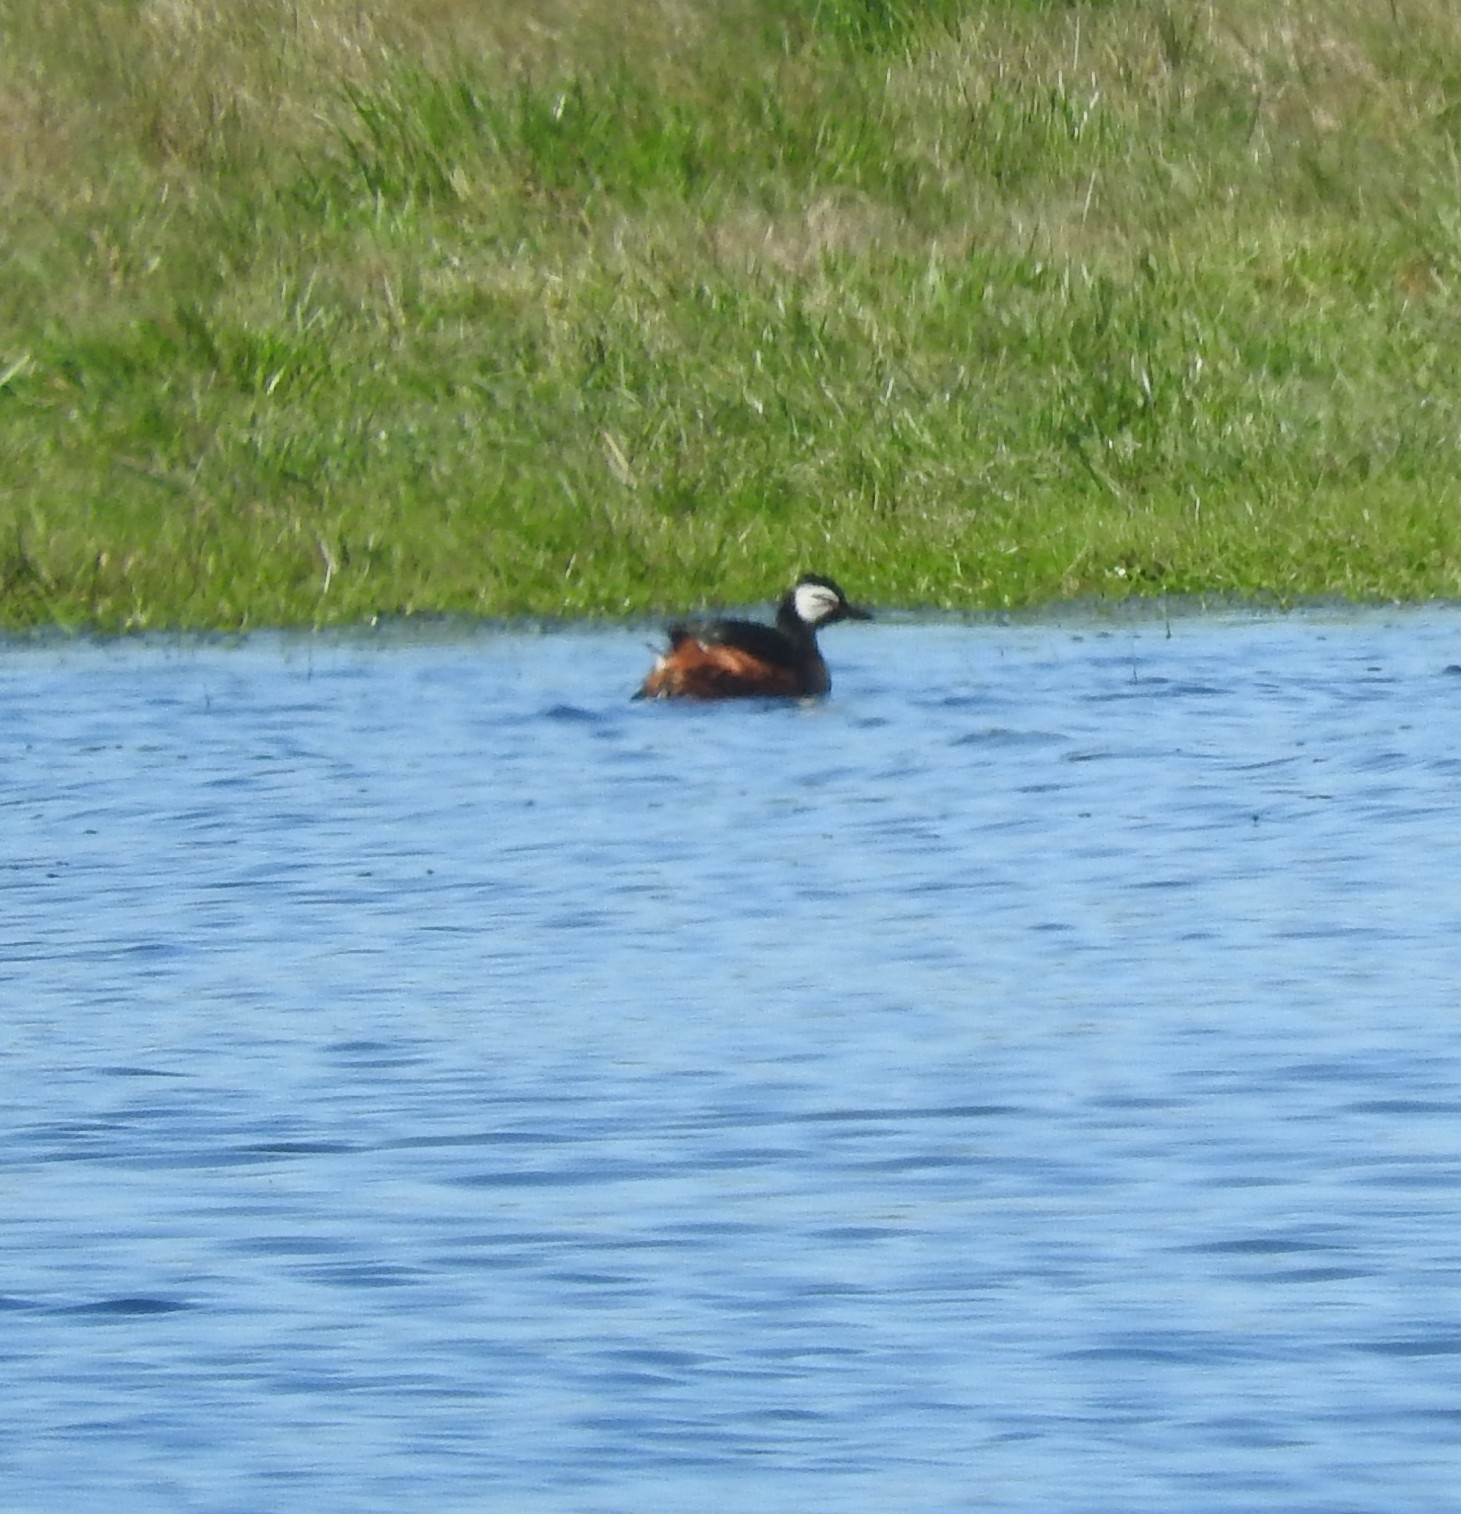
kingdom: Animalia
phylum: Chordata
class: Aves
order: Podicipediformes
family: Podicipedidae
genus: Rollandia
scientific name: Rollandia rolland
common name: White-tufted grebe
